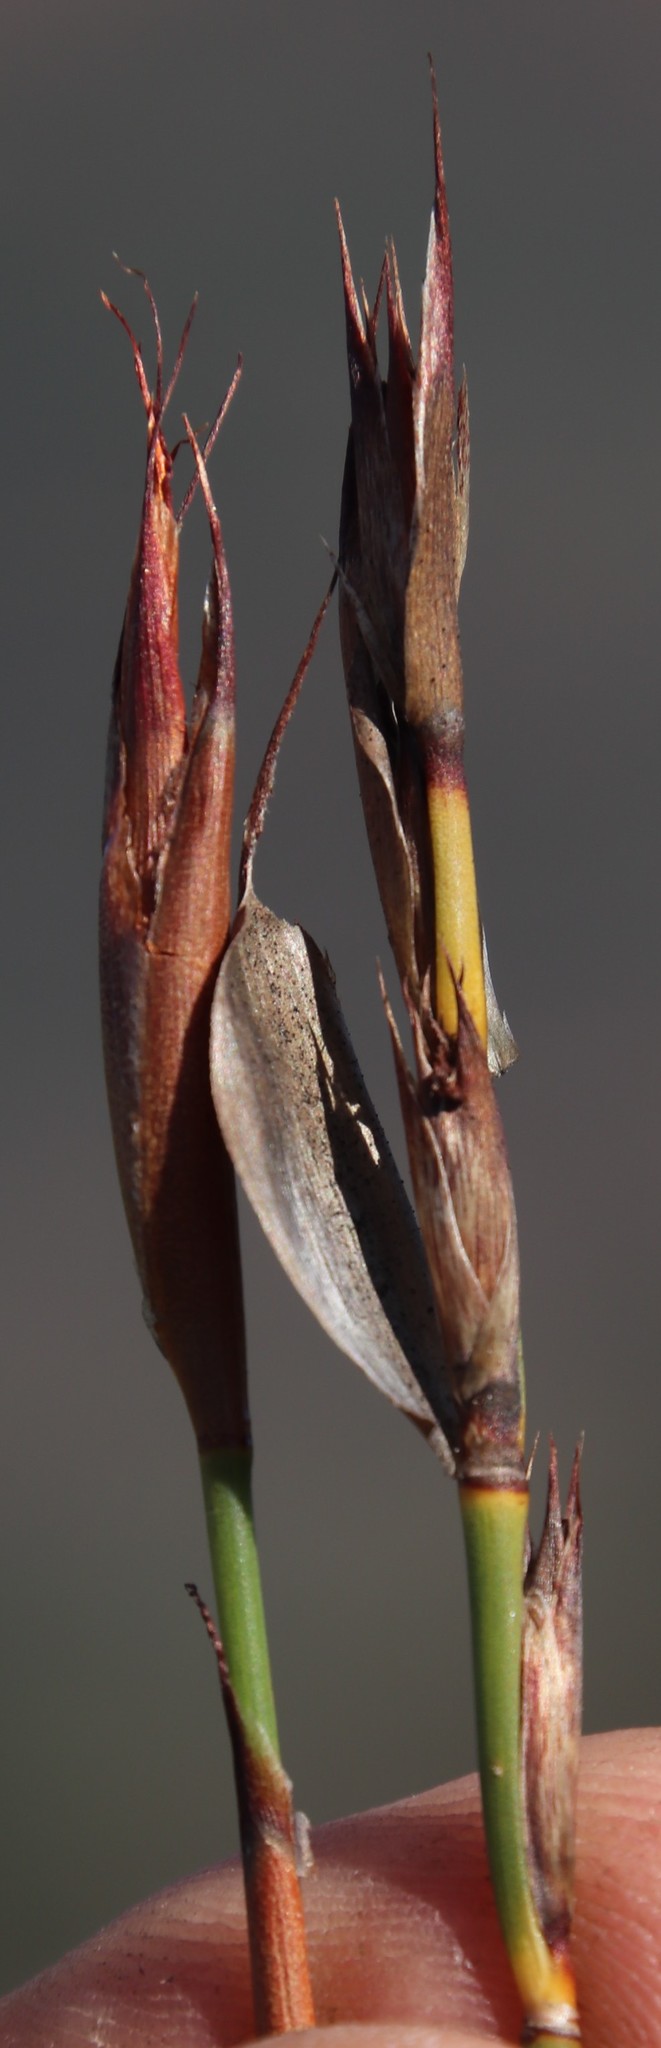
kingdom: Plantae
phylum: Tracheophyta
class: Liliopsida
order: Poales
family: Restionaceae
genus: Willdenowia
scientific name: Willdenowia sulcata
